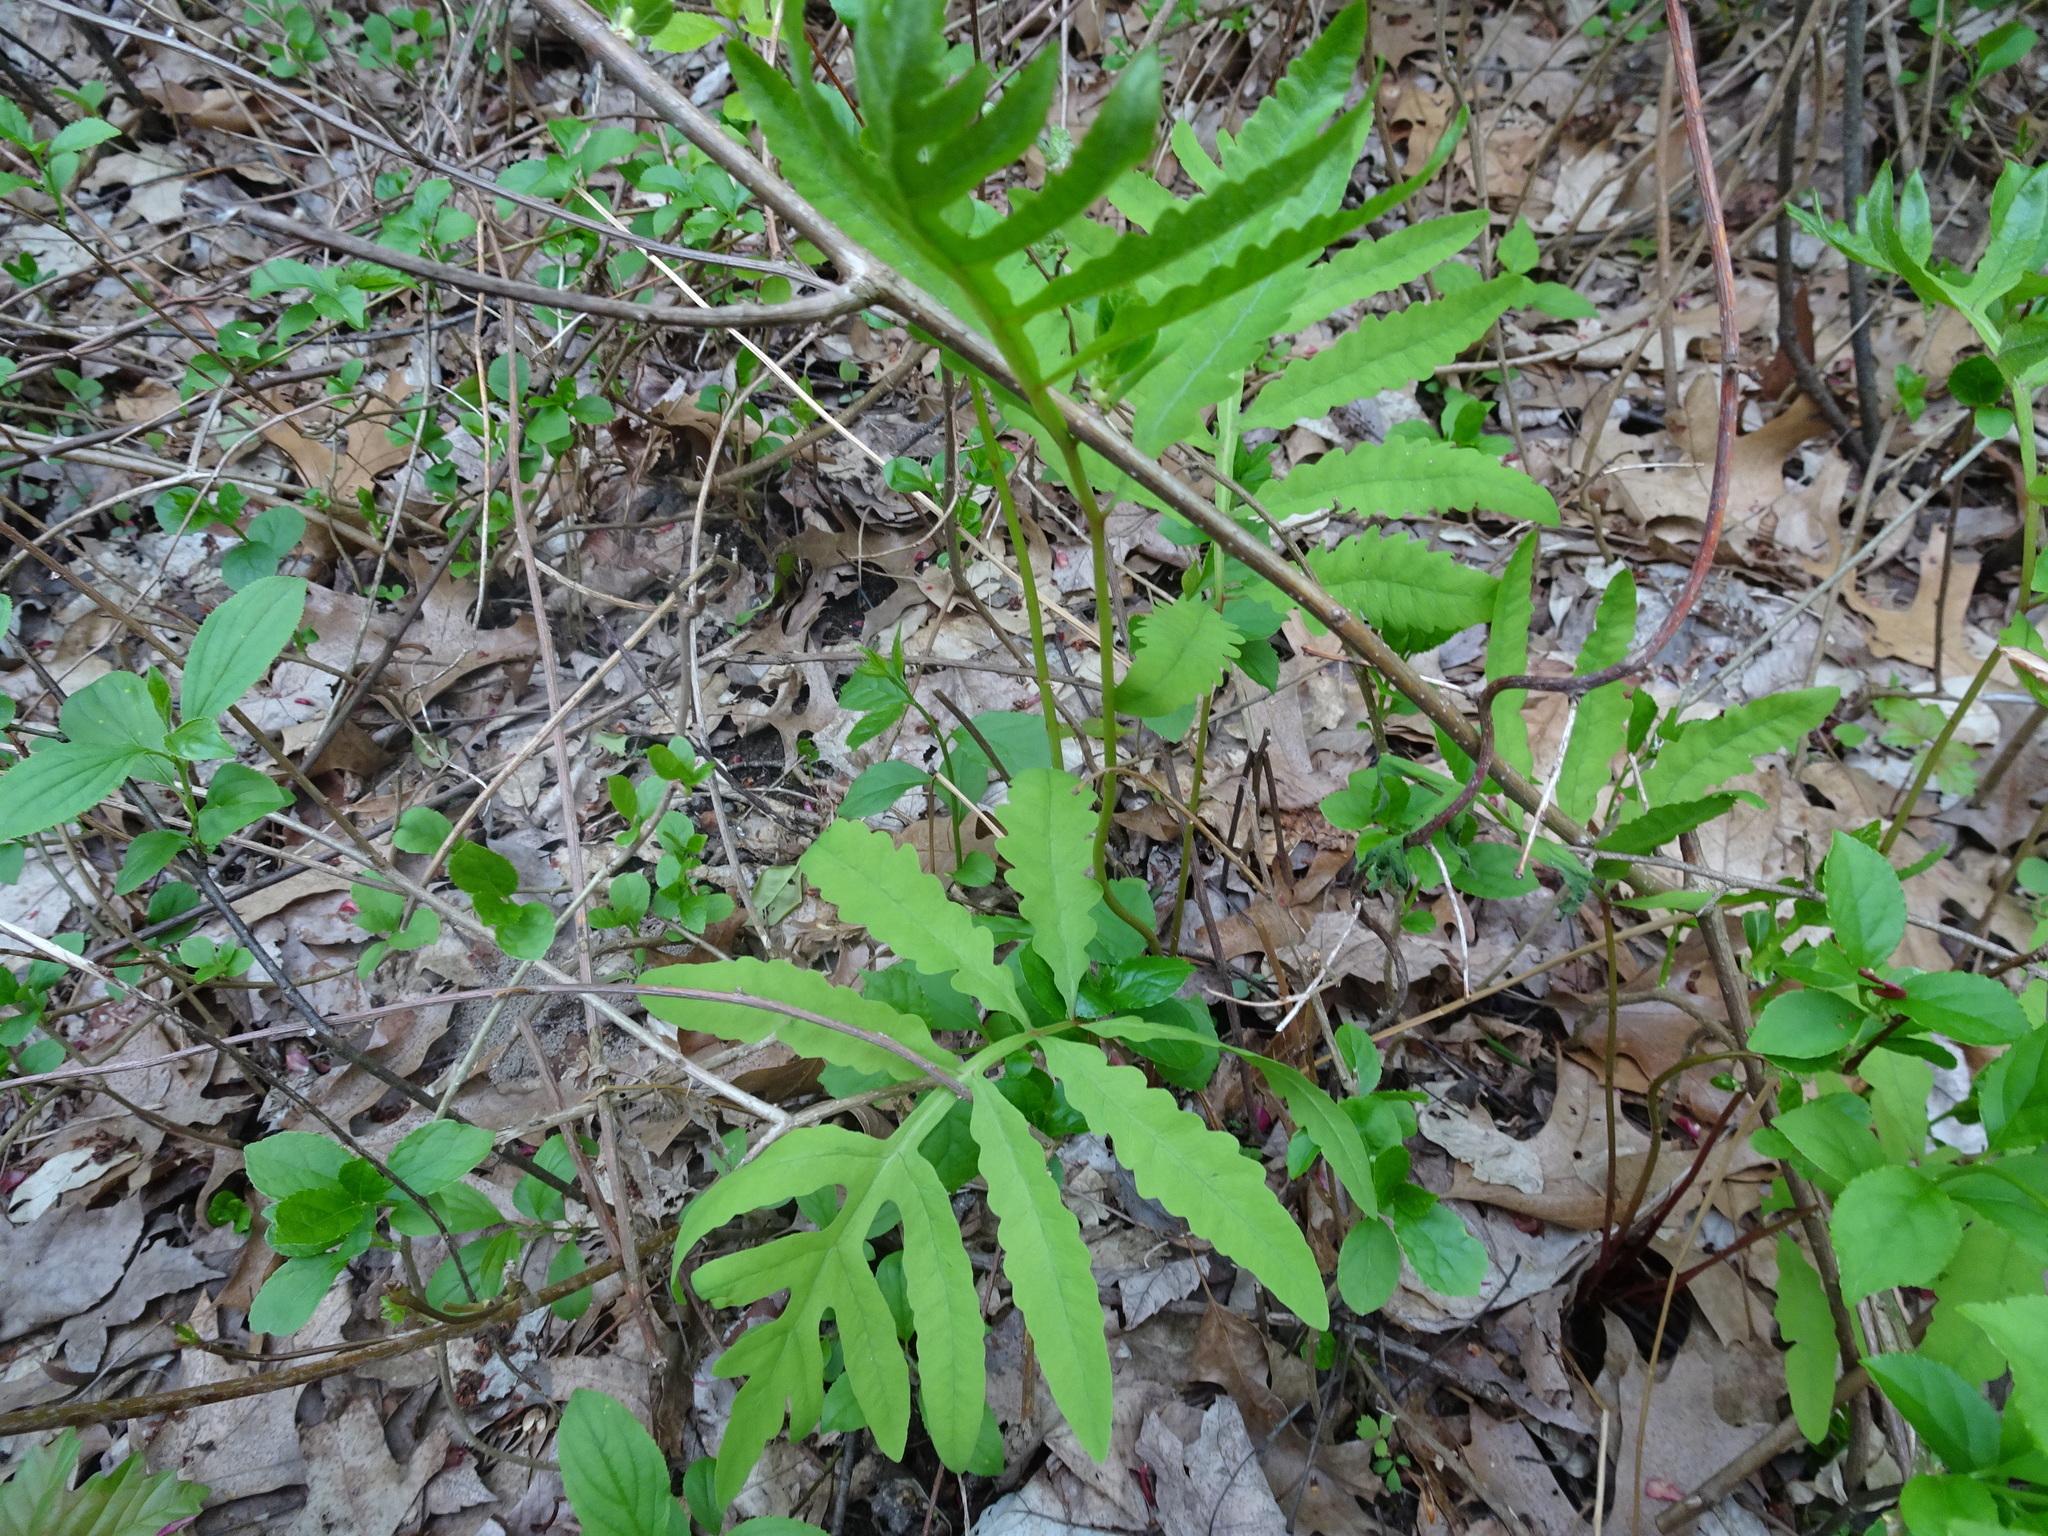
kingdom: Plantae
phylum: Tracheophyta
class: Polypodiopsida
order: Polypodiales
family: Onocleaceae
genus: Onoclea
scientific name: Onoclea sensibilis
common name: Sensitive fern
